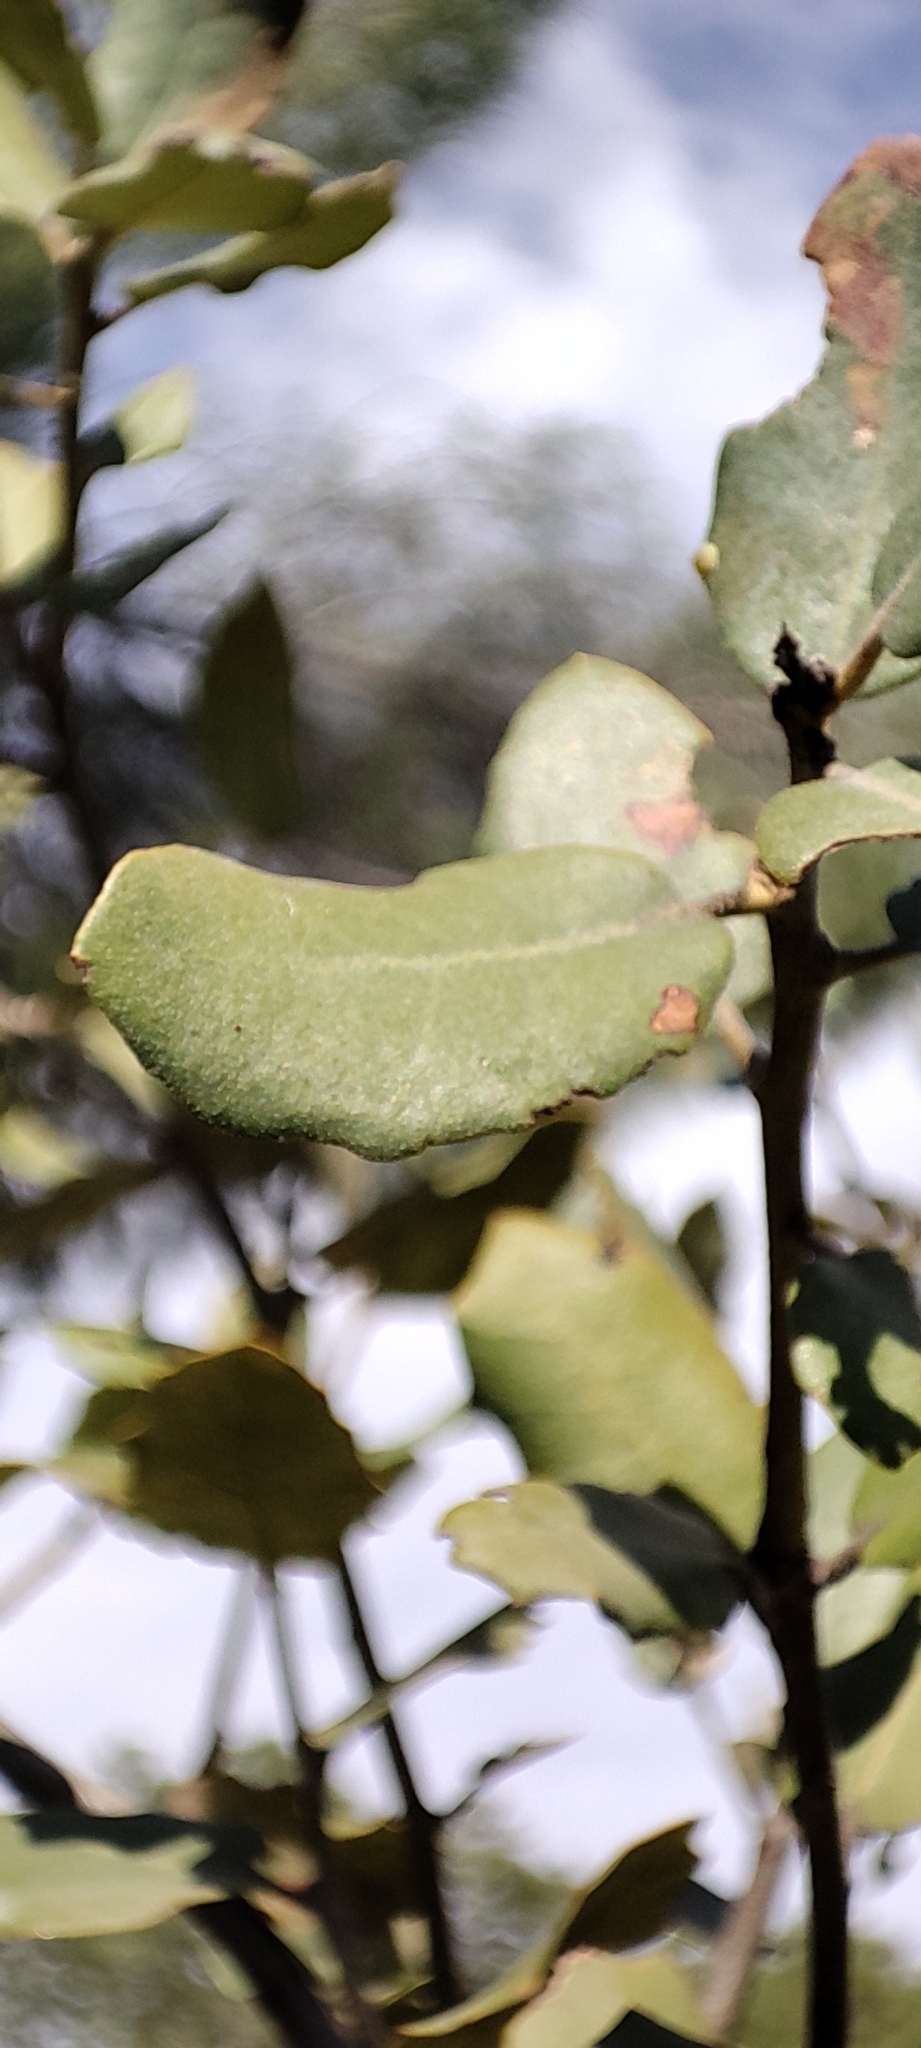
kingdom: Plantae
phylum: Tracheophyta
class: Magnoliopsida
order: Fagales
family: Fagaceae
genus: Quercus
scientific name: Quercus rotundifolia
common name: Holm oak
